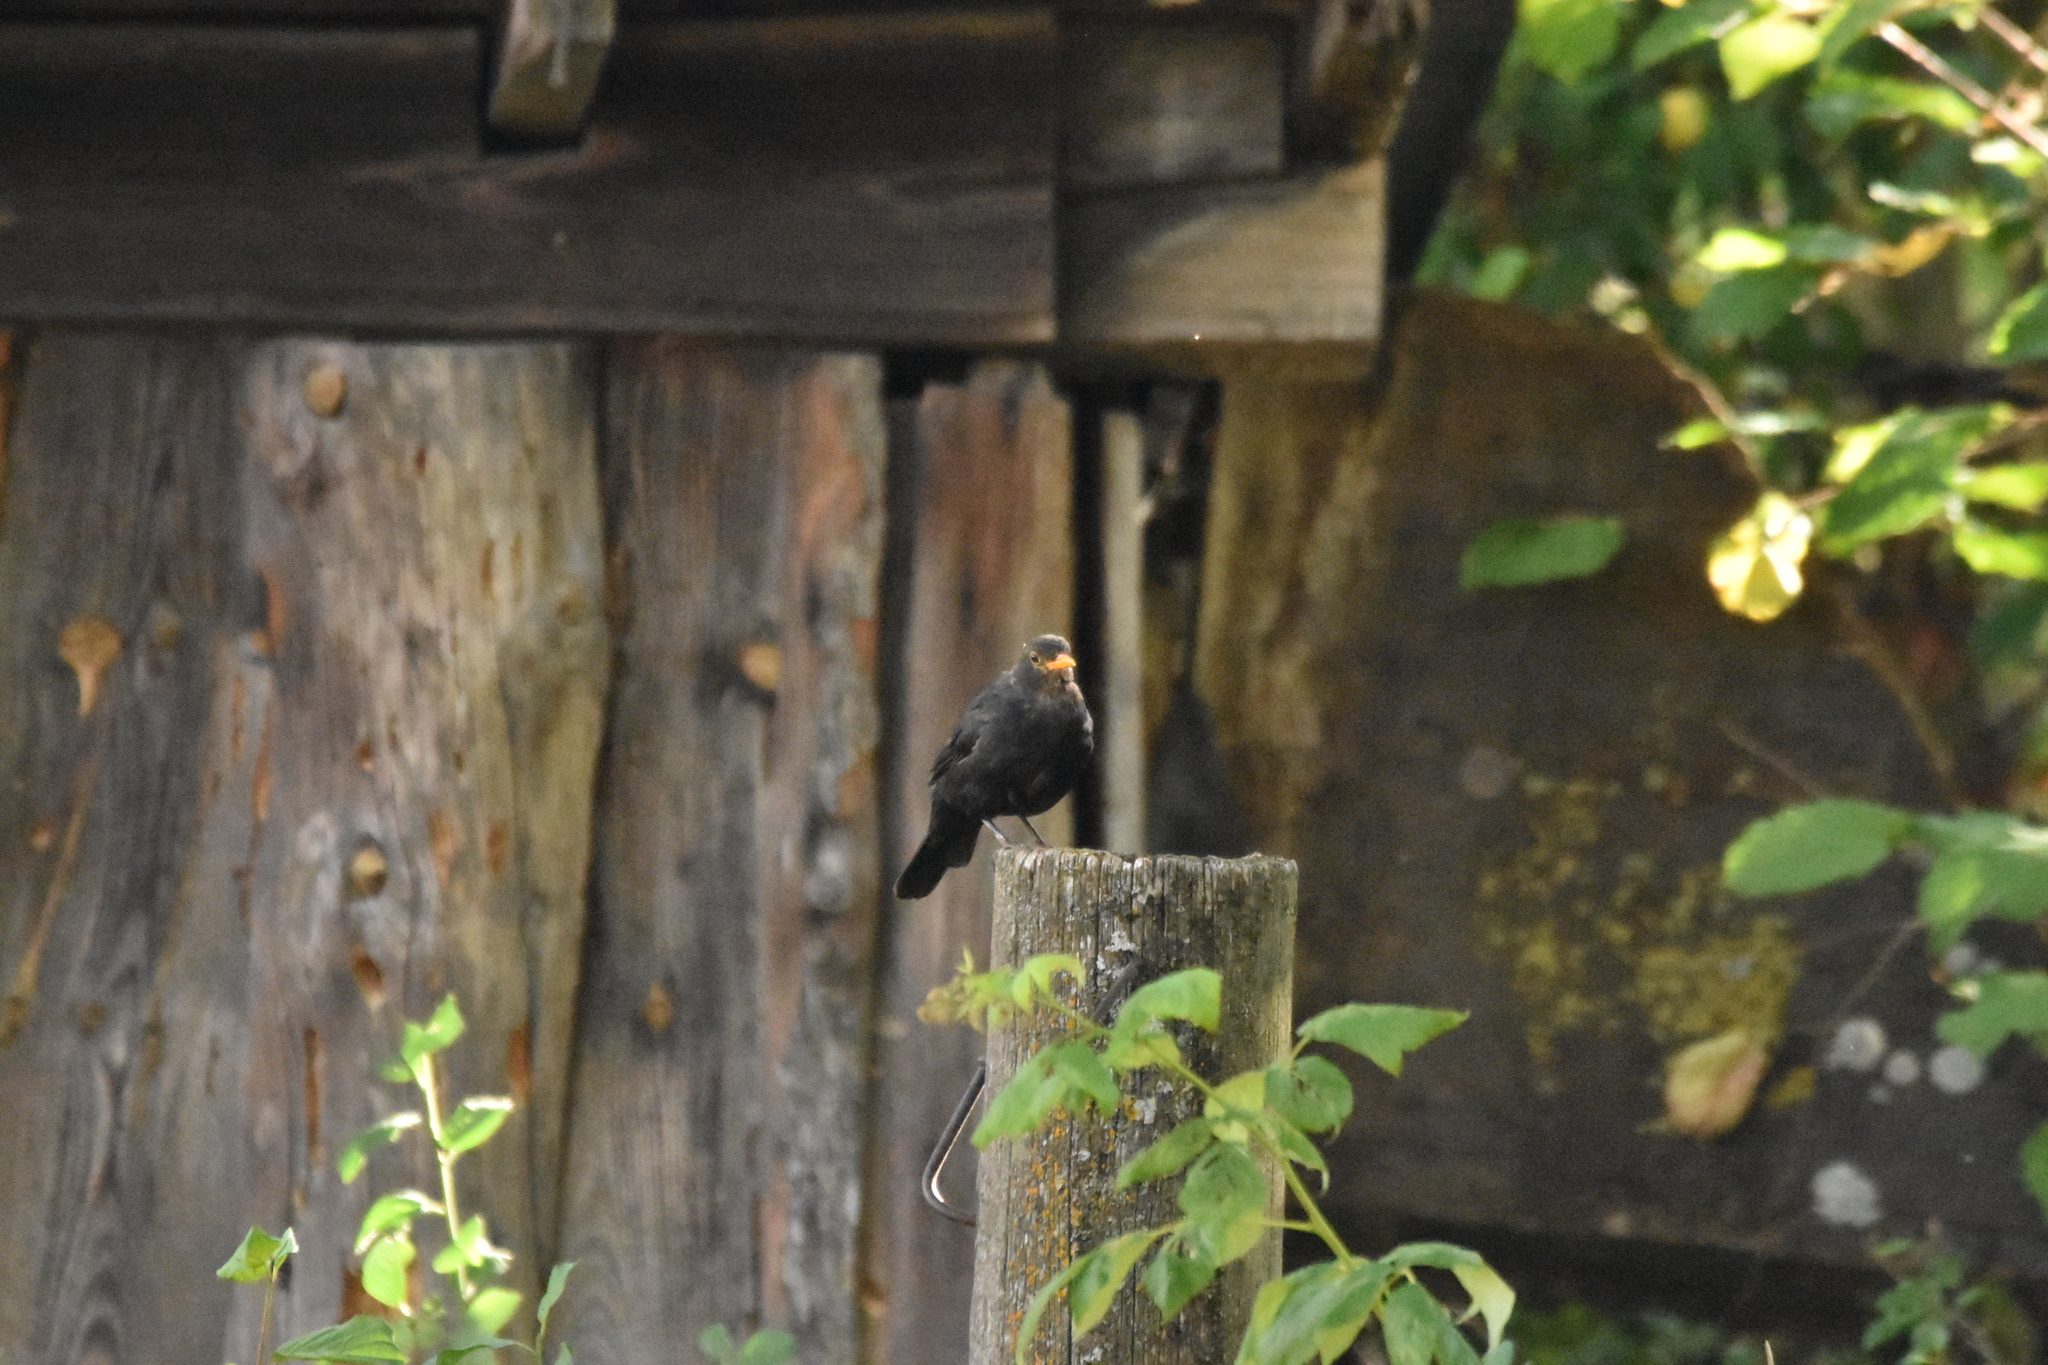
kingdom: Animalia
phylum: Chordata
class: Aves
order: Passeriformes
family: Turdidae
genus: Turdus
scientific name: Turdus merula
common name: Common blackbird
